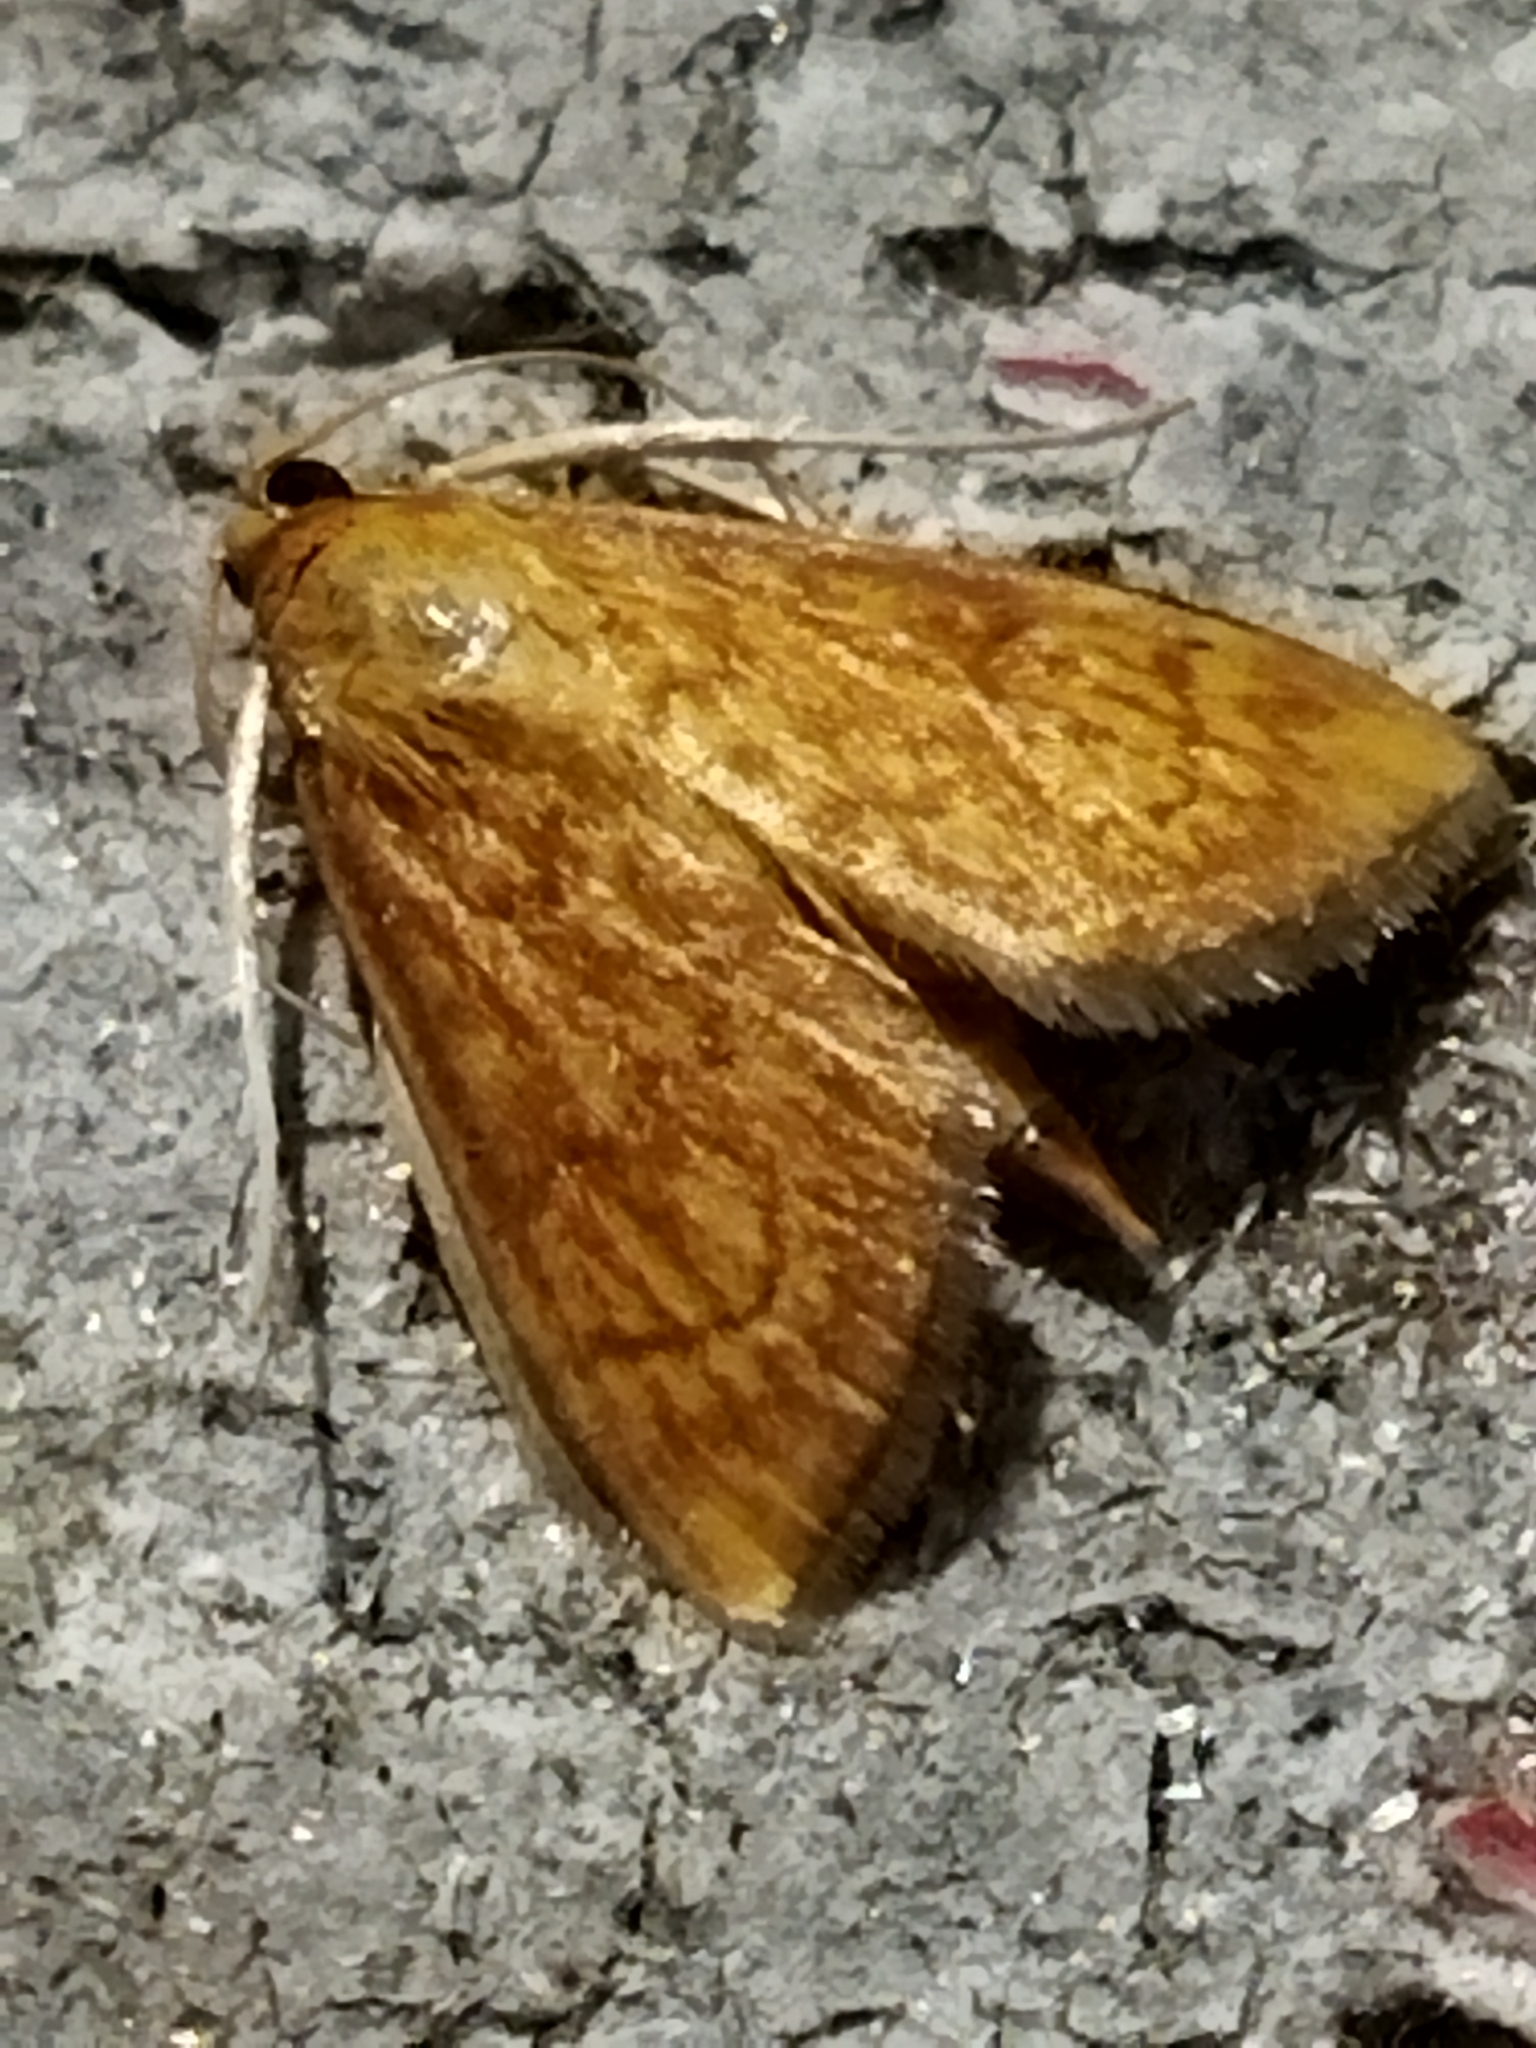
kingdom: Animalia
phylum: Arthropoda
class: Insecta
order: Lepidoptera
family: Crambidae
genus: Ecpyrrhorrhoe
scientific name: Ecpyrrhorrhoe rubiginalis
